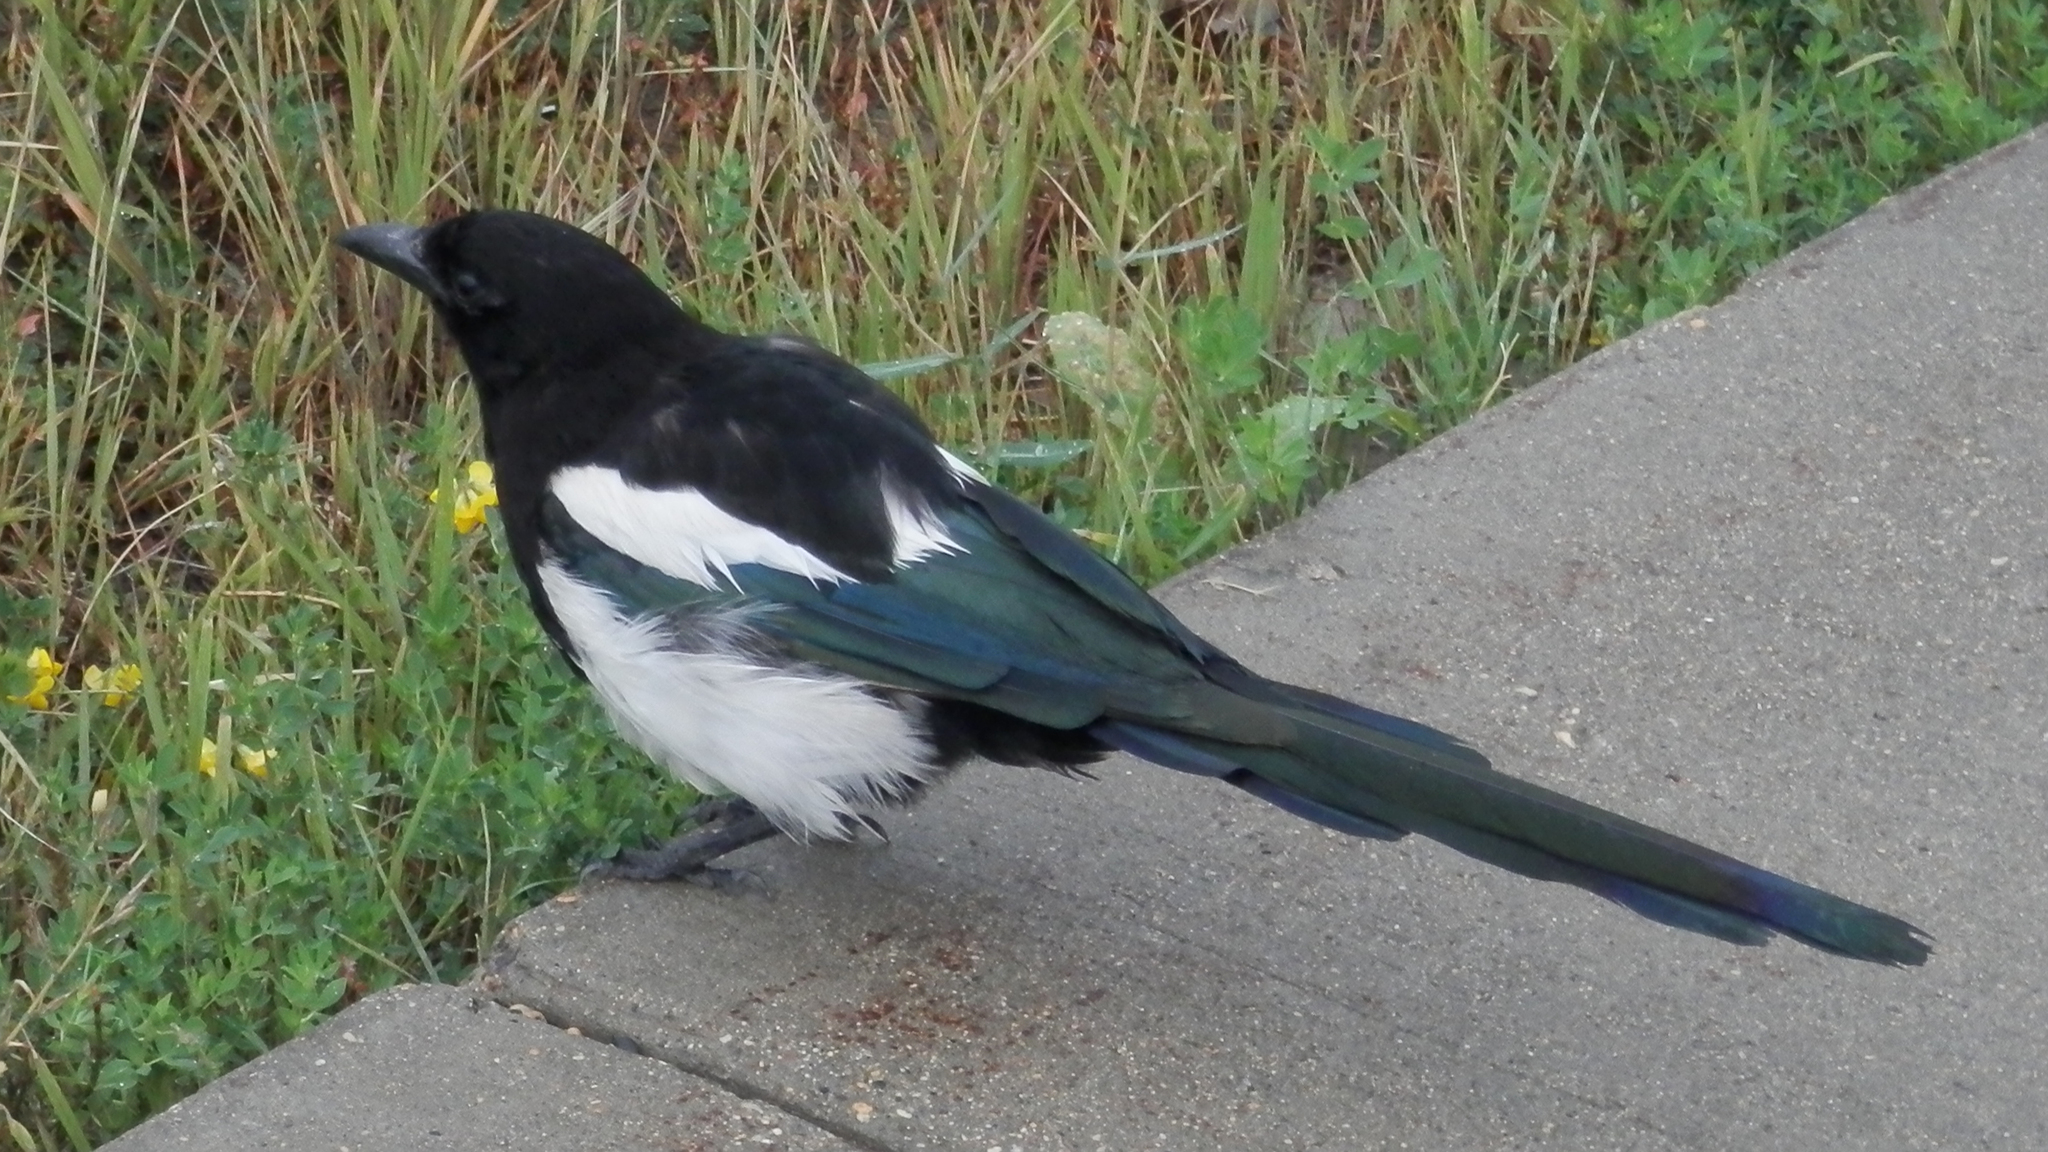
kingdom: Animalia
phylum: Chordata
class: Aves
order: Passeriformes
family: Corvidae
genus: Pica
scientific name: Pica hudsonia
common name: Black-billed magpie
